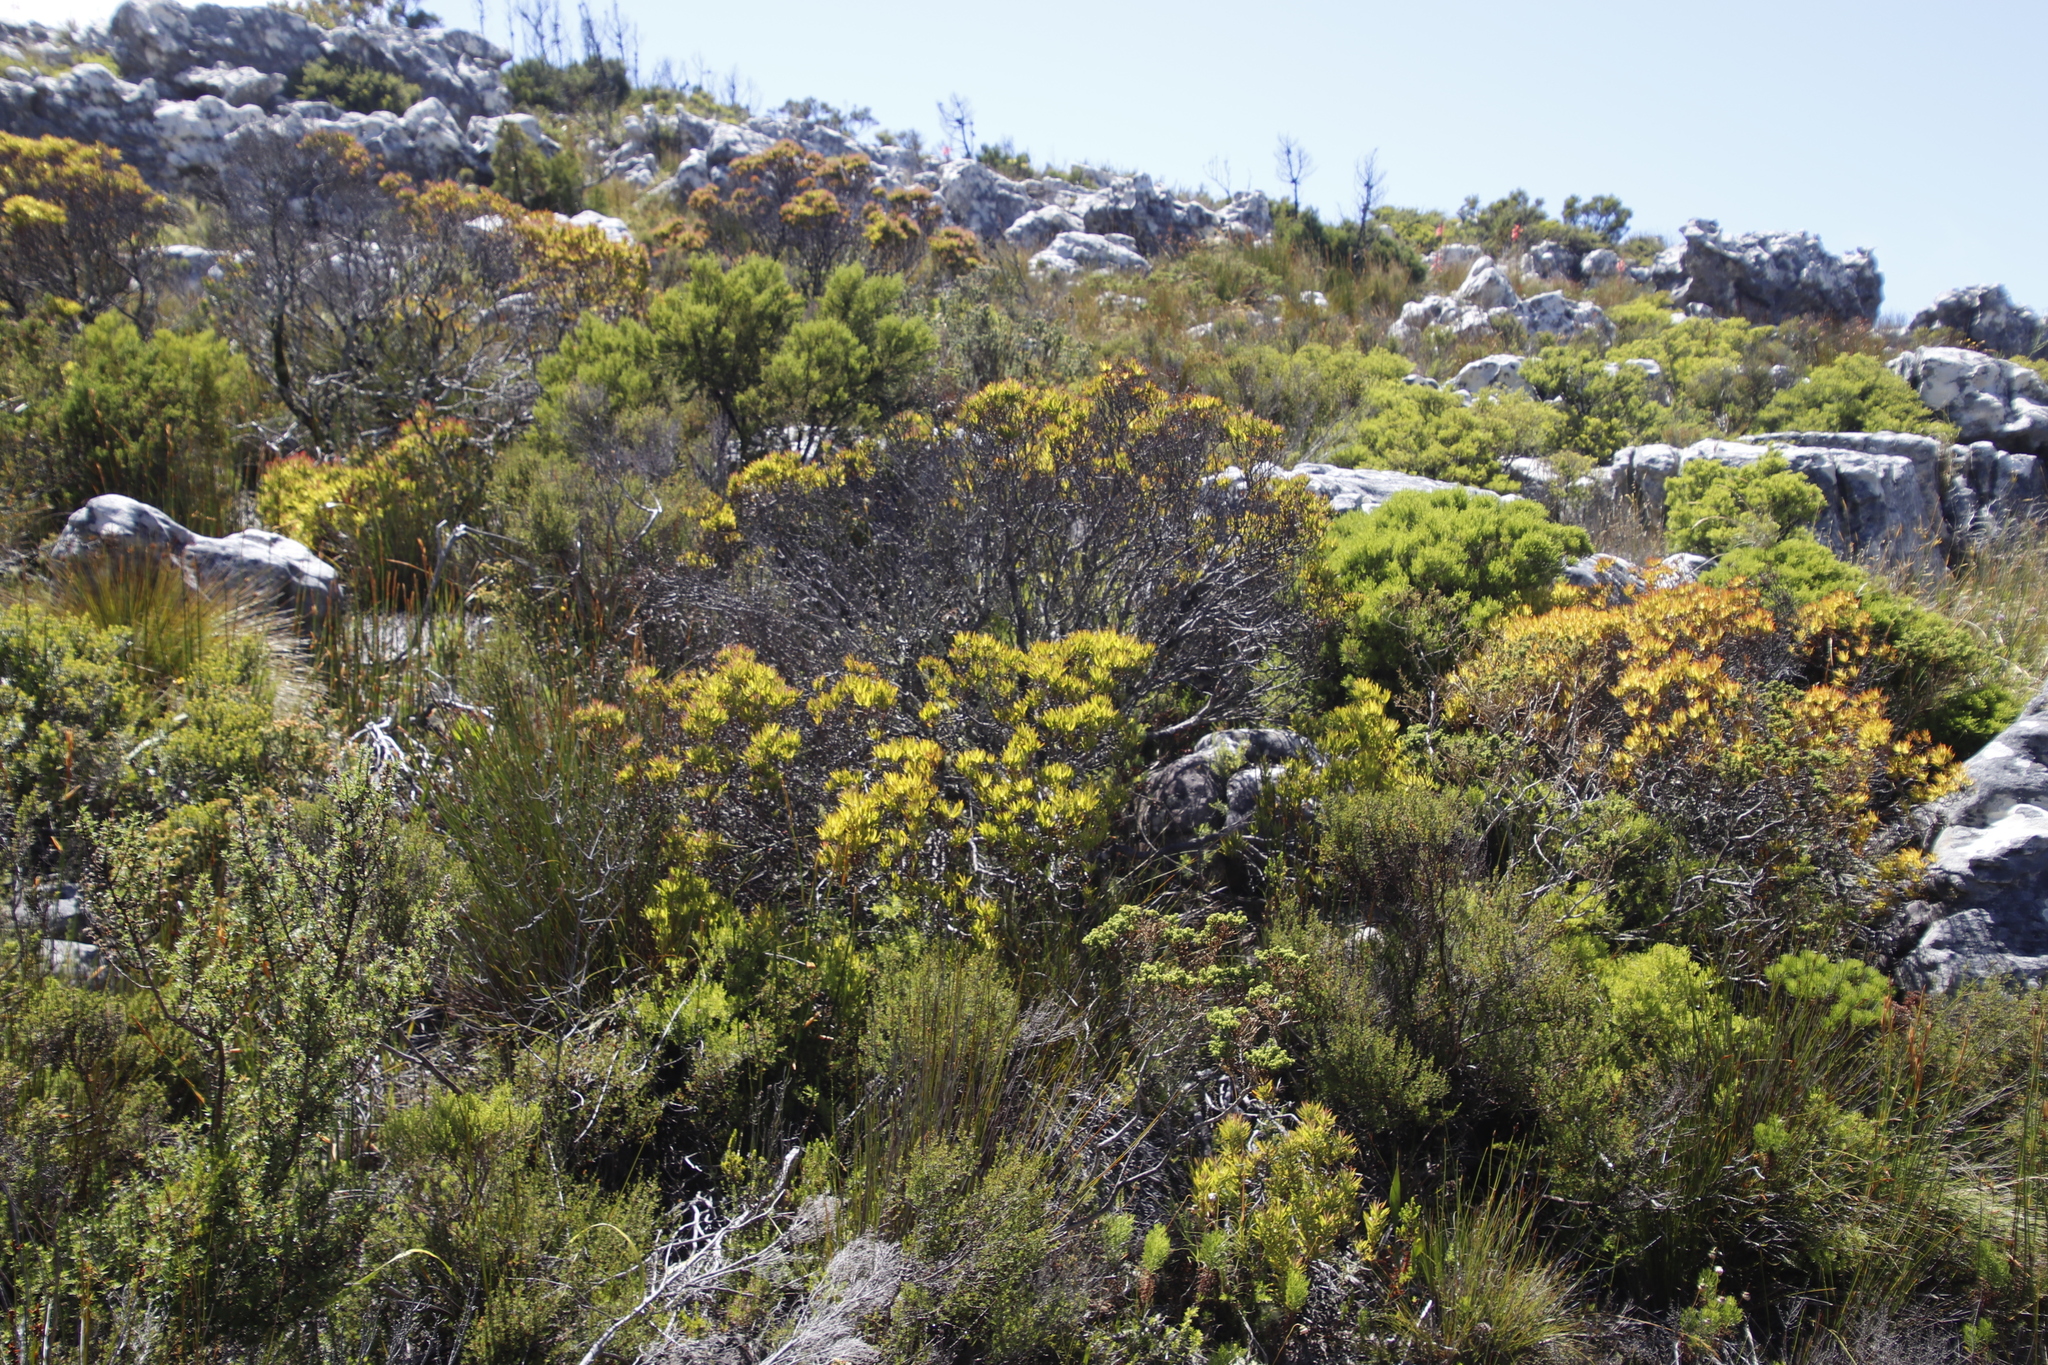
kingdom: Plantae
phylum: Tracheophyta
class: Magnoliopsida
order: Proteales
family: Proteaceae
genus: Leucadendron
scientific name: Leucadendron xanthoconus
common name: Sickle-leaf conebush
